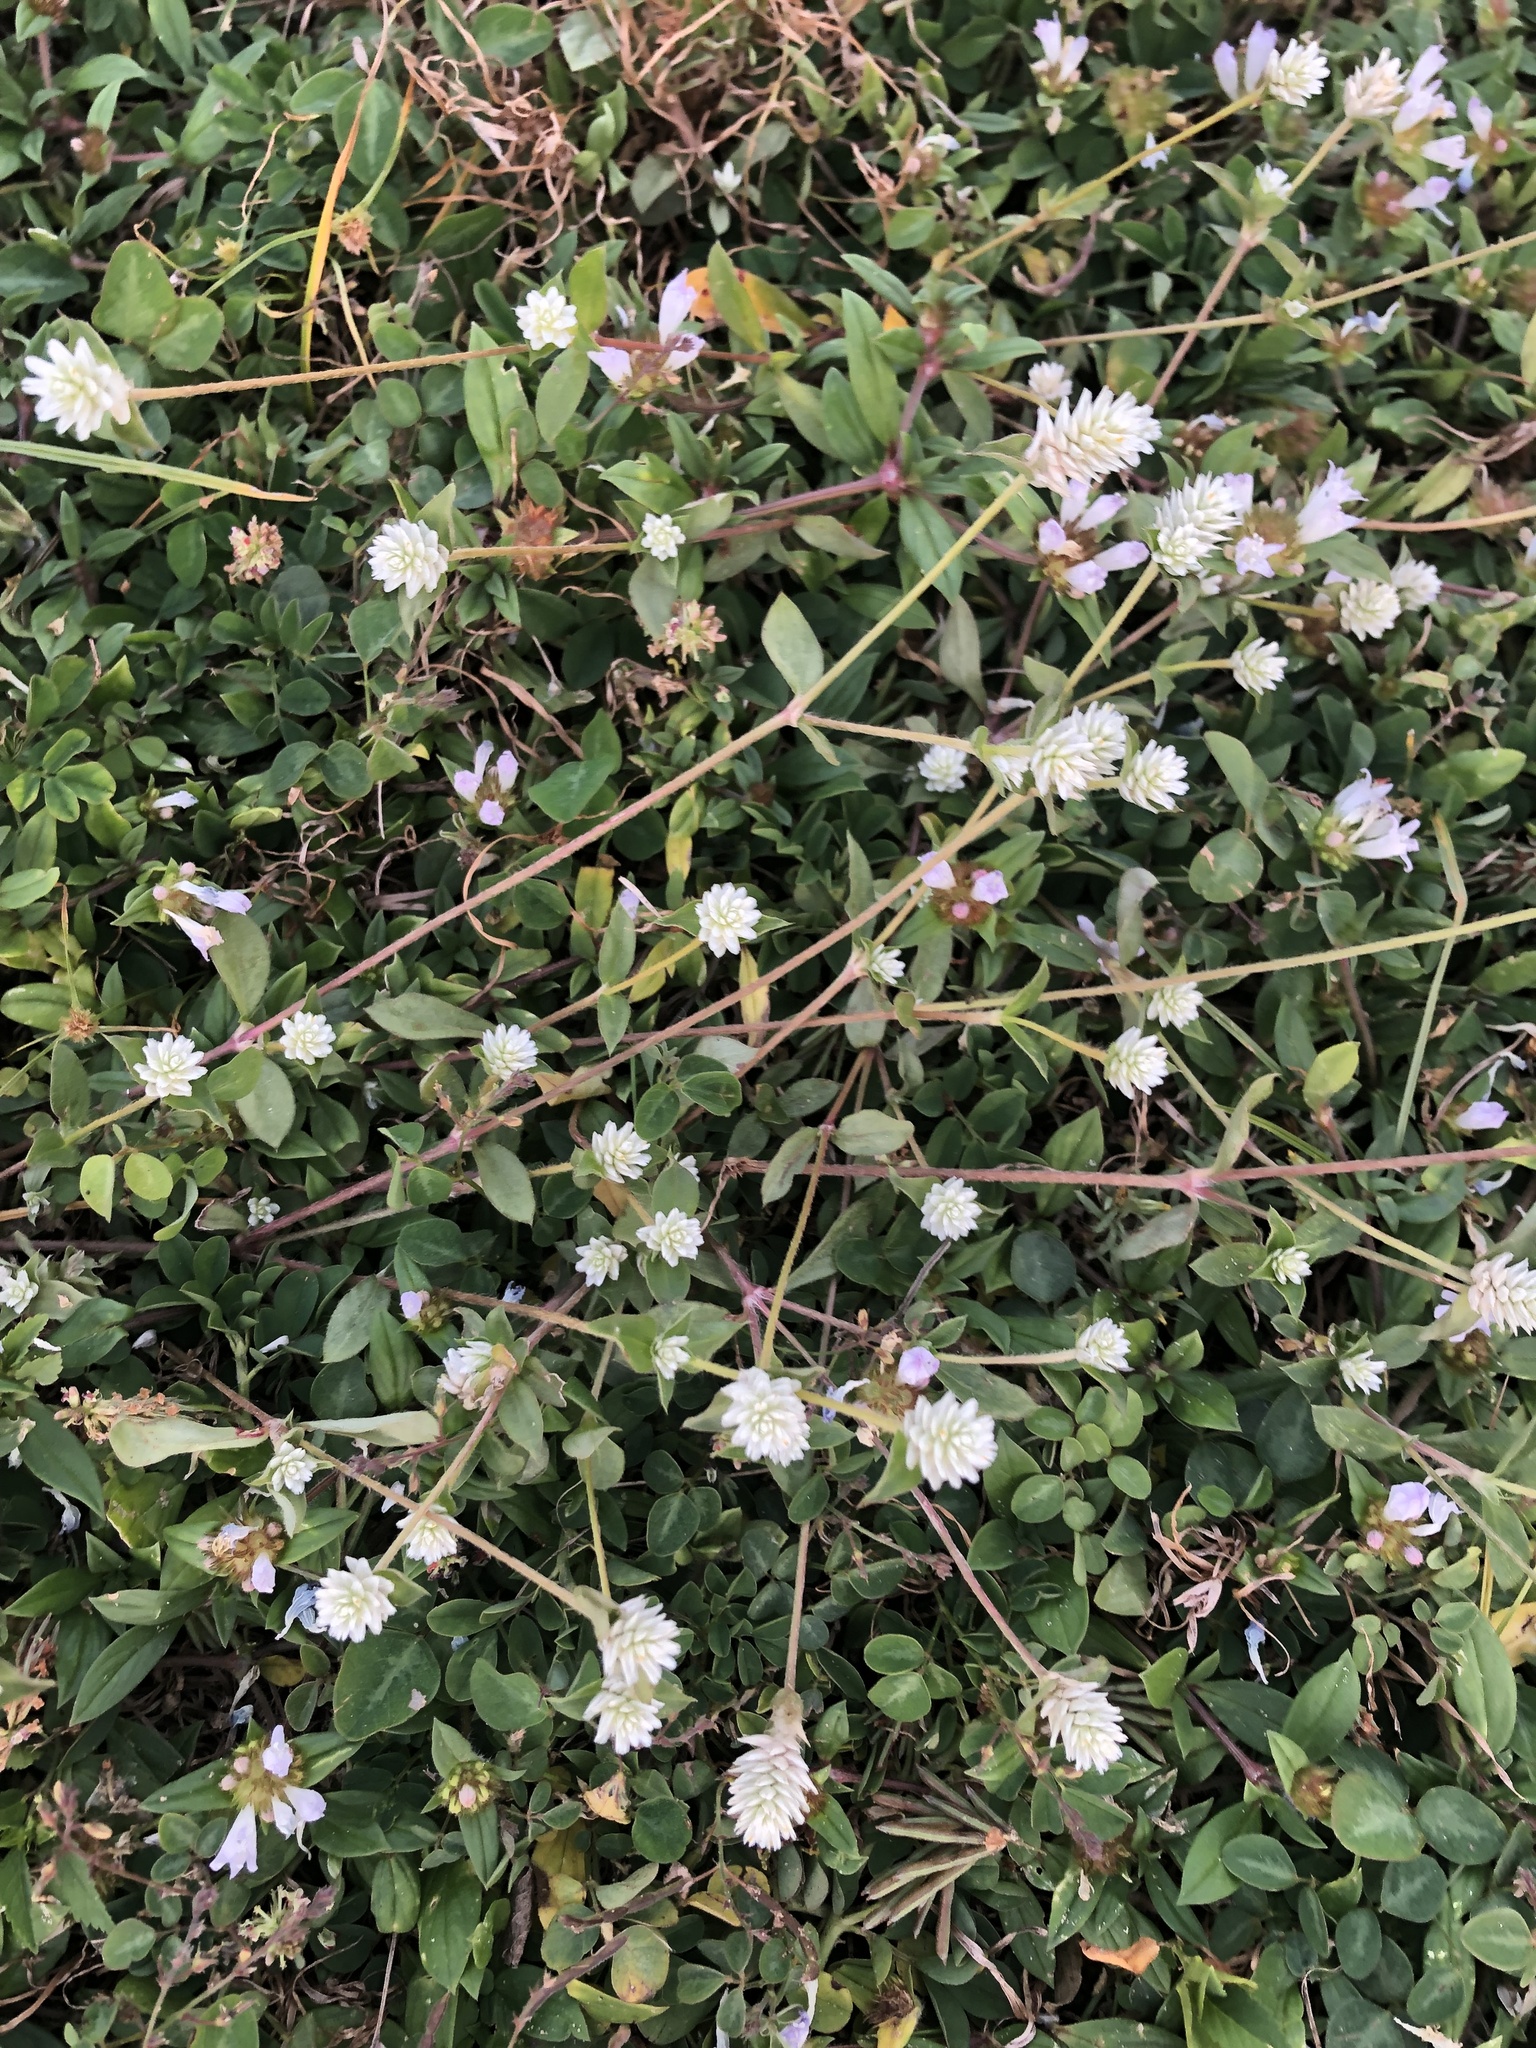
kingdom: Plantae
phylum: Tracheophyta
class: Magnoliopsida
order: Caryophyllales
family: Amaranthaceae
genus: Gomphrena
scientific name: Gomphrena serrata
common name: Arrasa con todo
